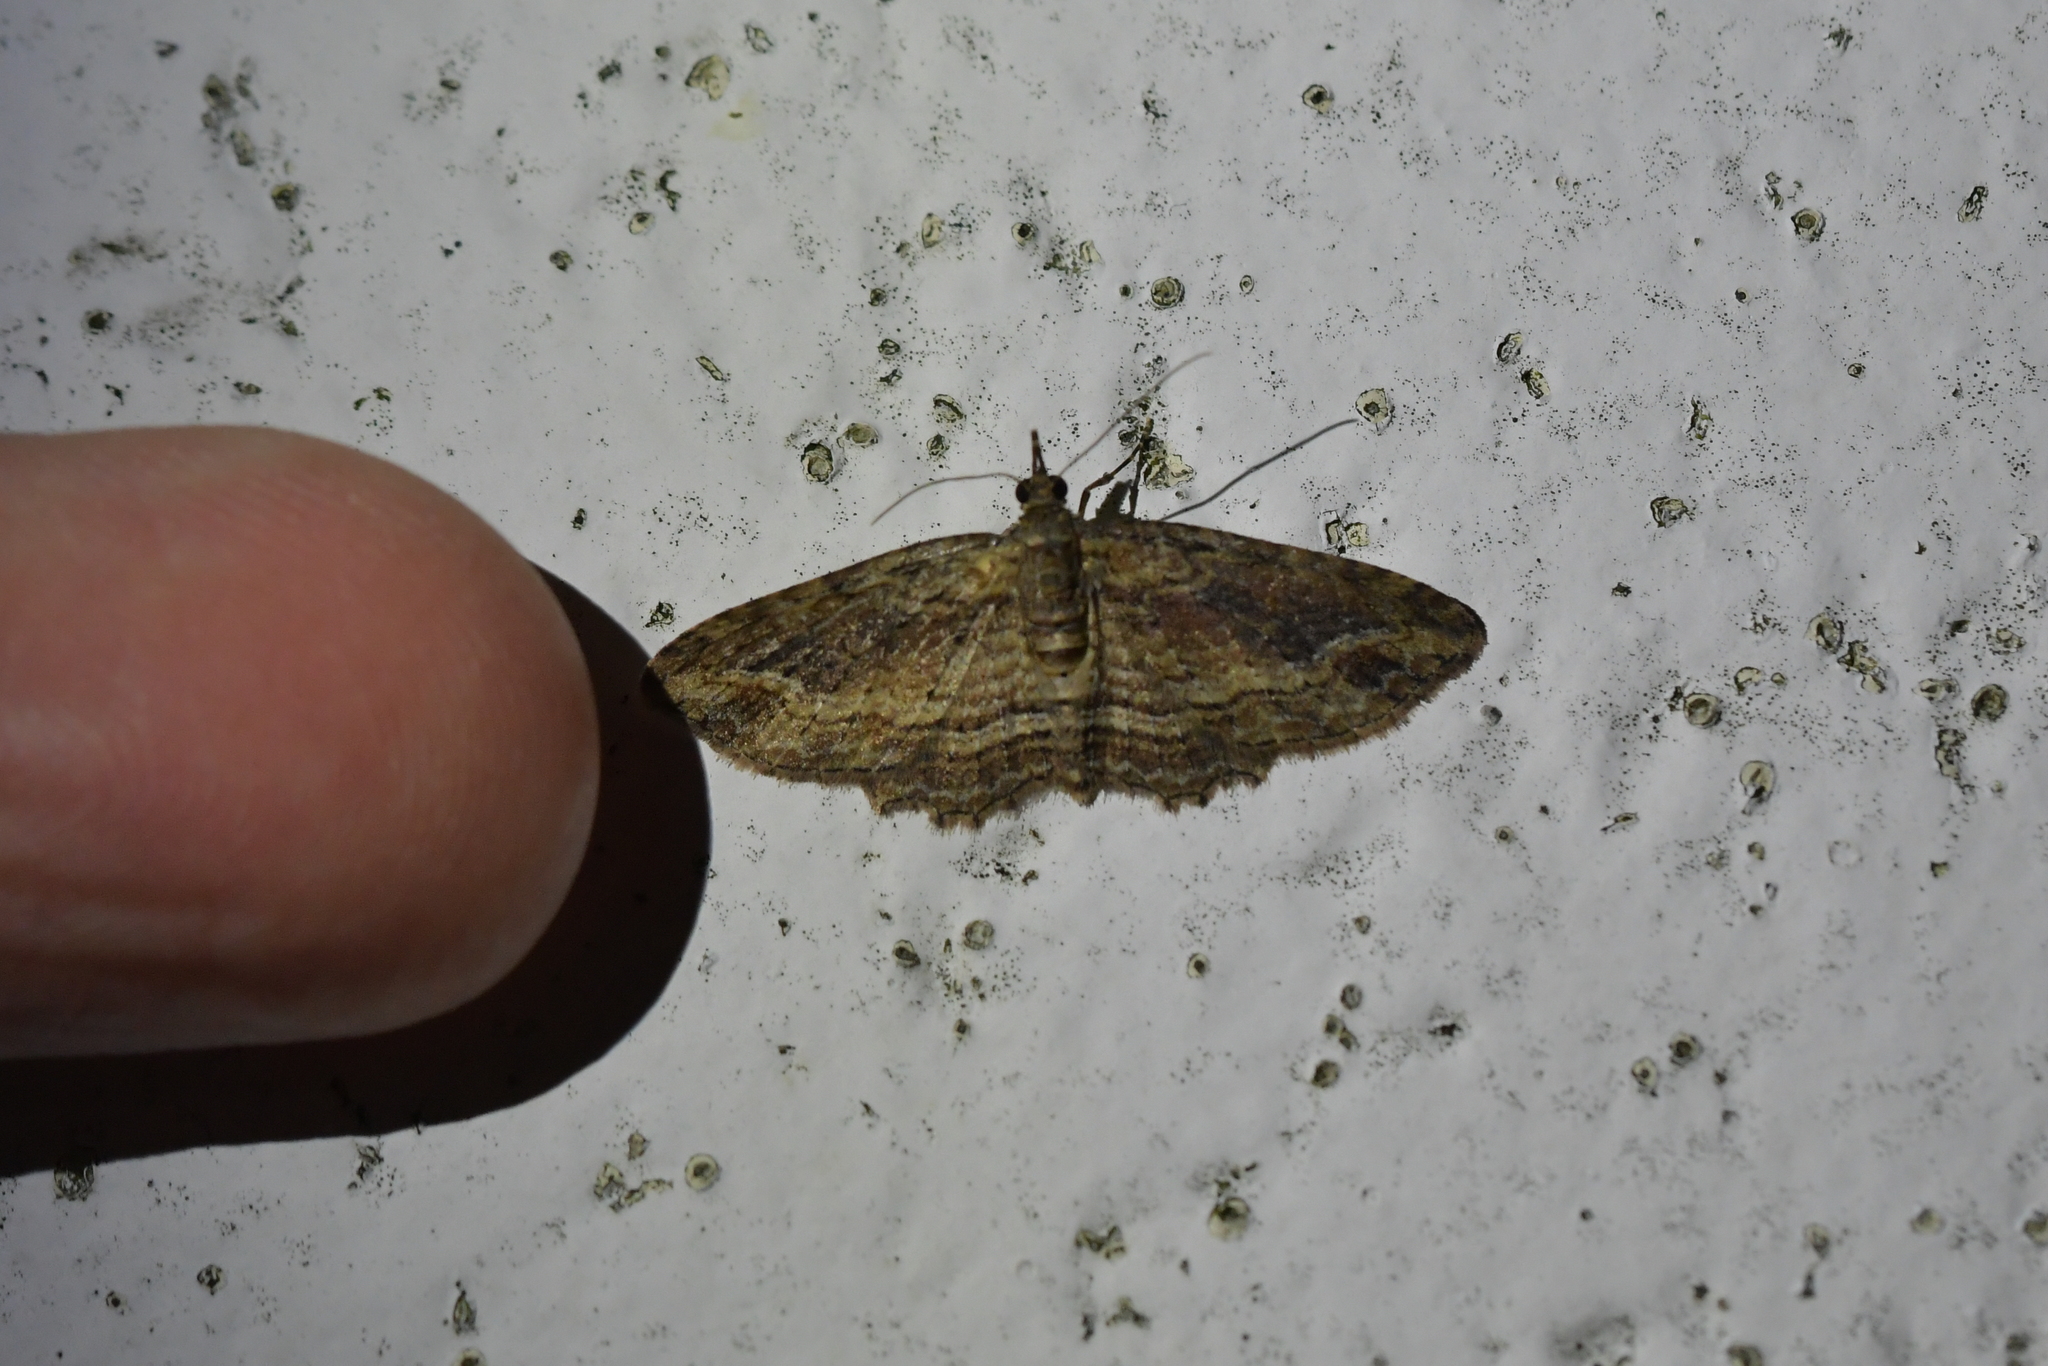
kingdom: Animalia
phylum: Arthropoda
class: Insecta
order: Lepidoptera
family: Geometridae
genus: Chloroclystis
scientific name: Chloroclystis filata
